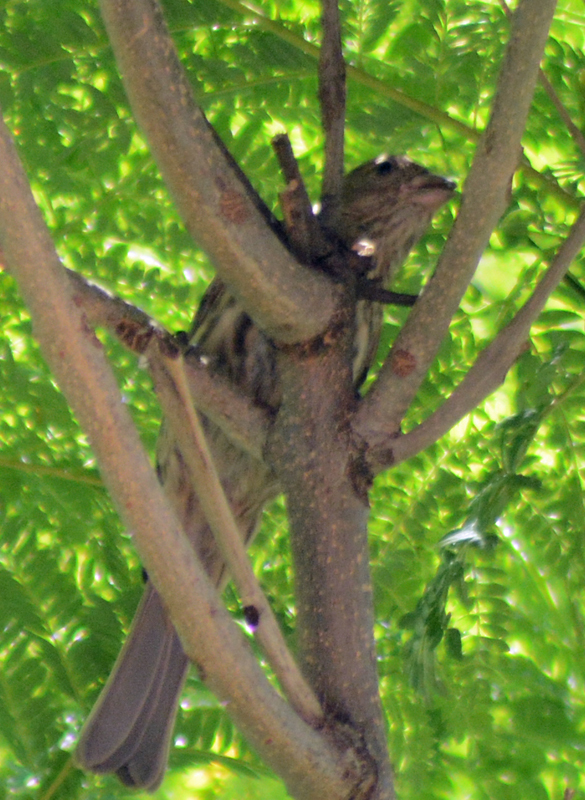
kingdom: Animalia
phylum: Chordata
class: Aves
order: Passeriformes
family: Fringillidae
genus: Haemorhous
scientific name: Haemorhous mexicanus
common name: House finch
